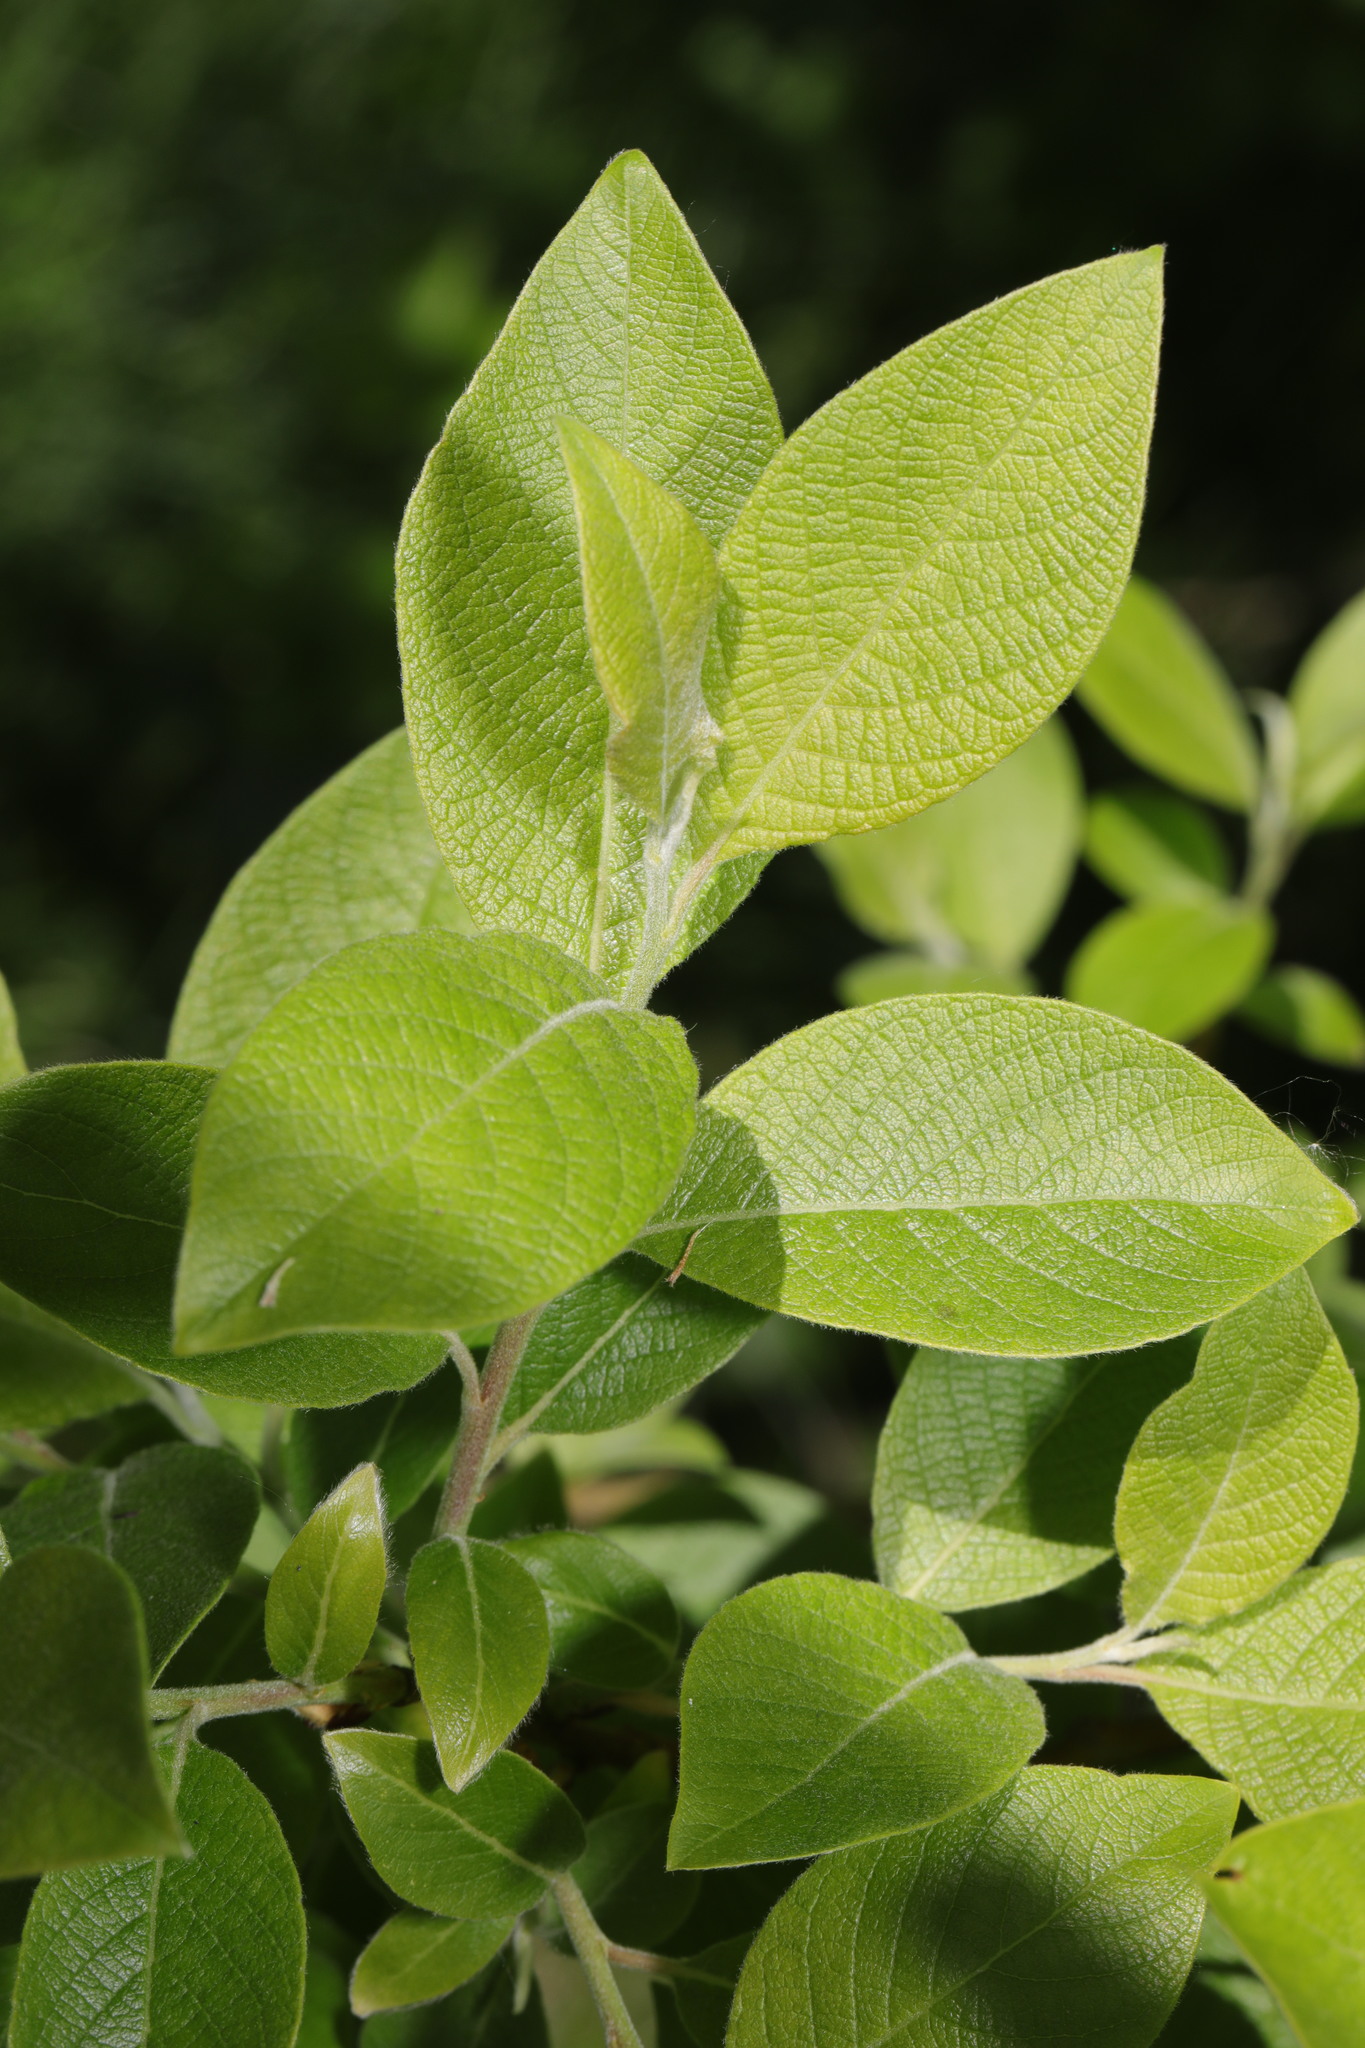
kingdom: Plantae
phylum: Tracheophyta
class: Magnoliopsida
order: Malpighiales
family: Salicaceae
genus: Salix
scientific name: Salix caprea
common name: Goat willow
